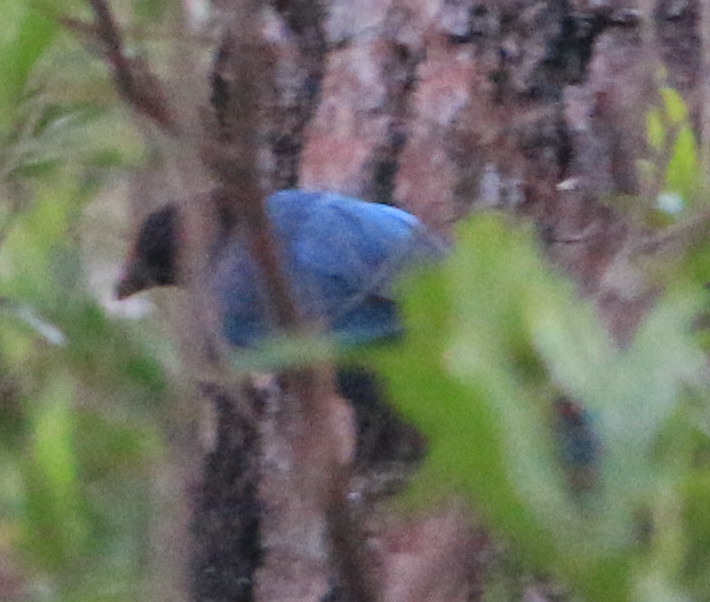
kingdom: Animalia
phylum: Chordata
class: Aves
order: Passeriformes
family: Corvidae
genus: Cyanocorax
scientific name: Cyanocorax melanocyaneus
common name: Bushy-crested jay
